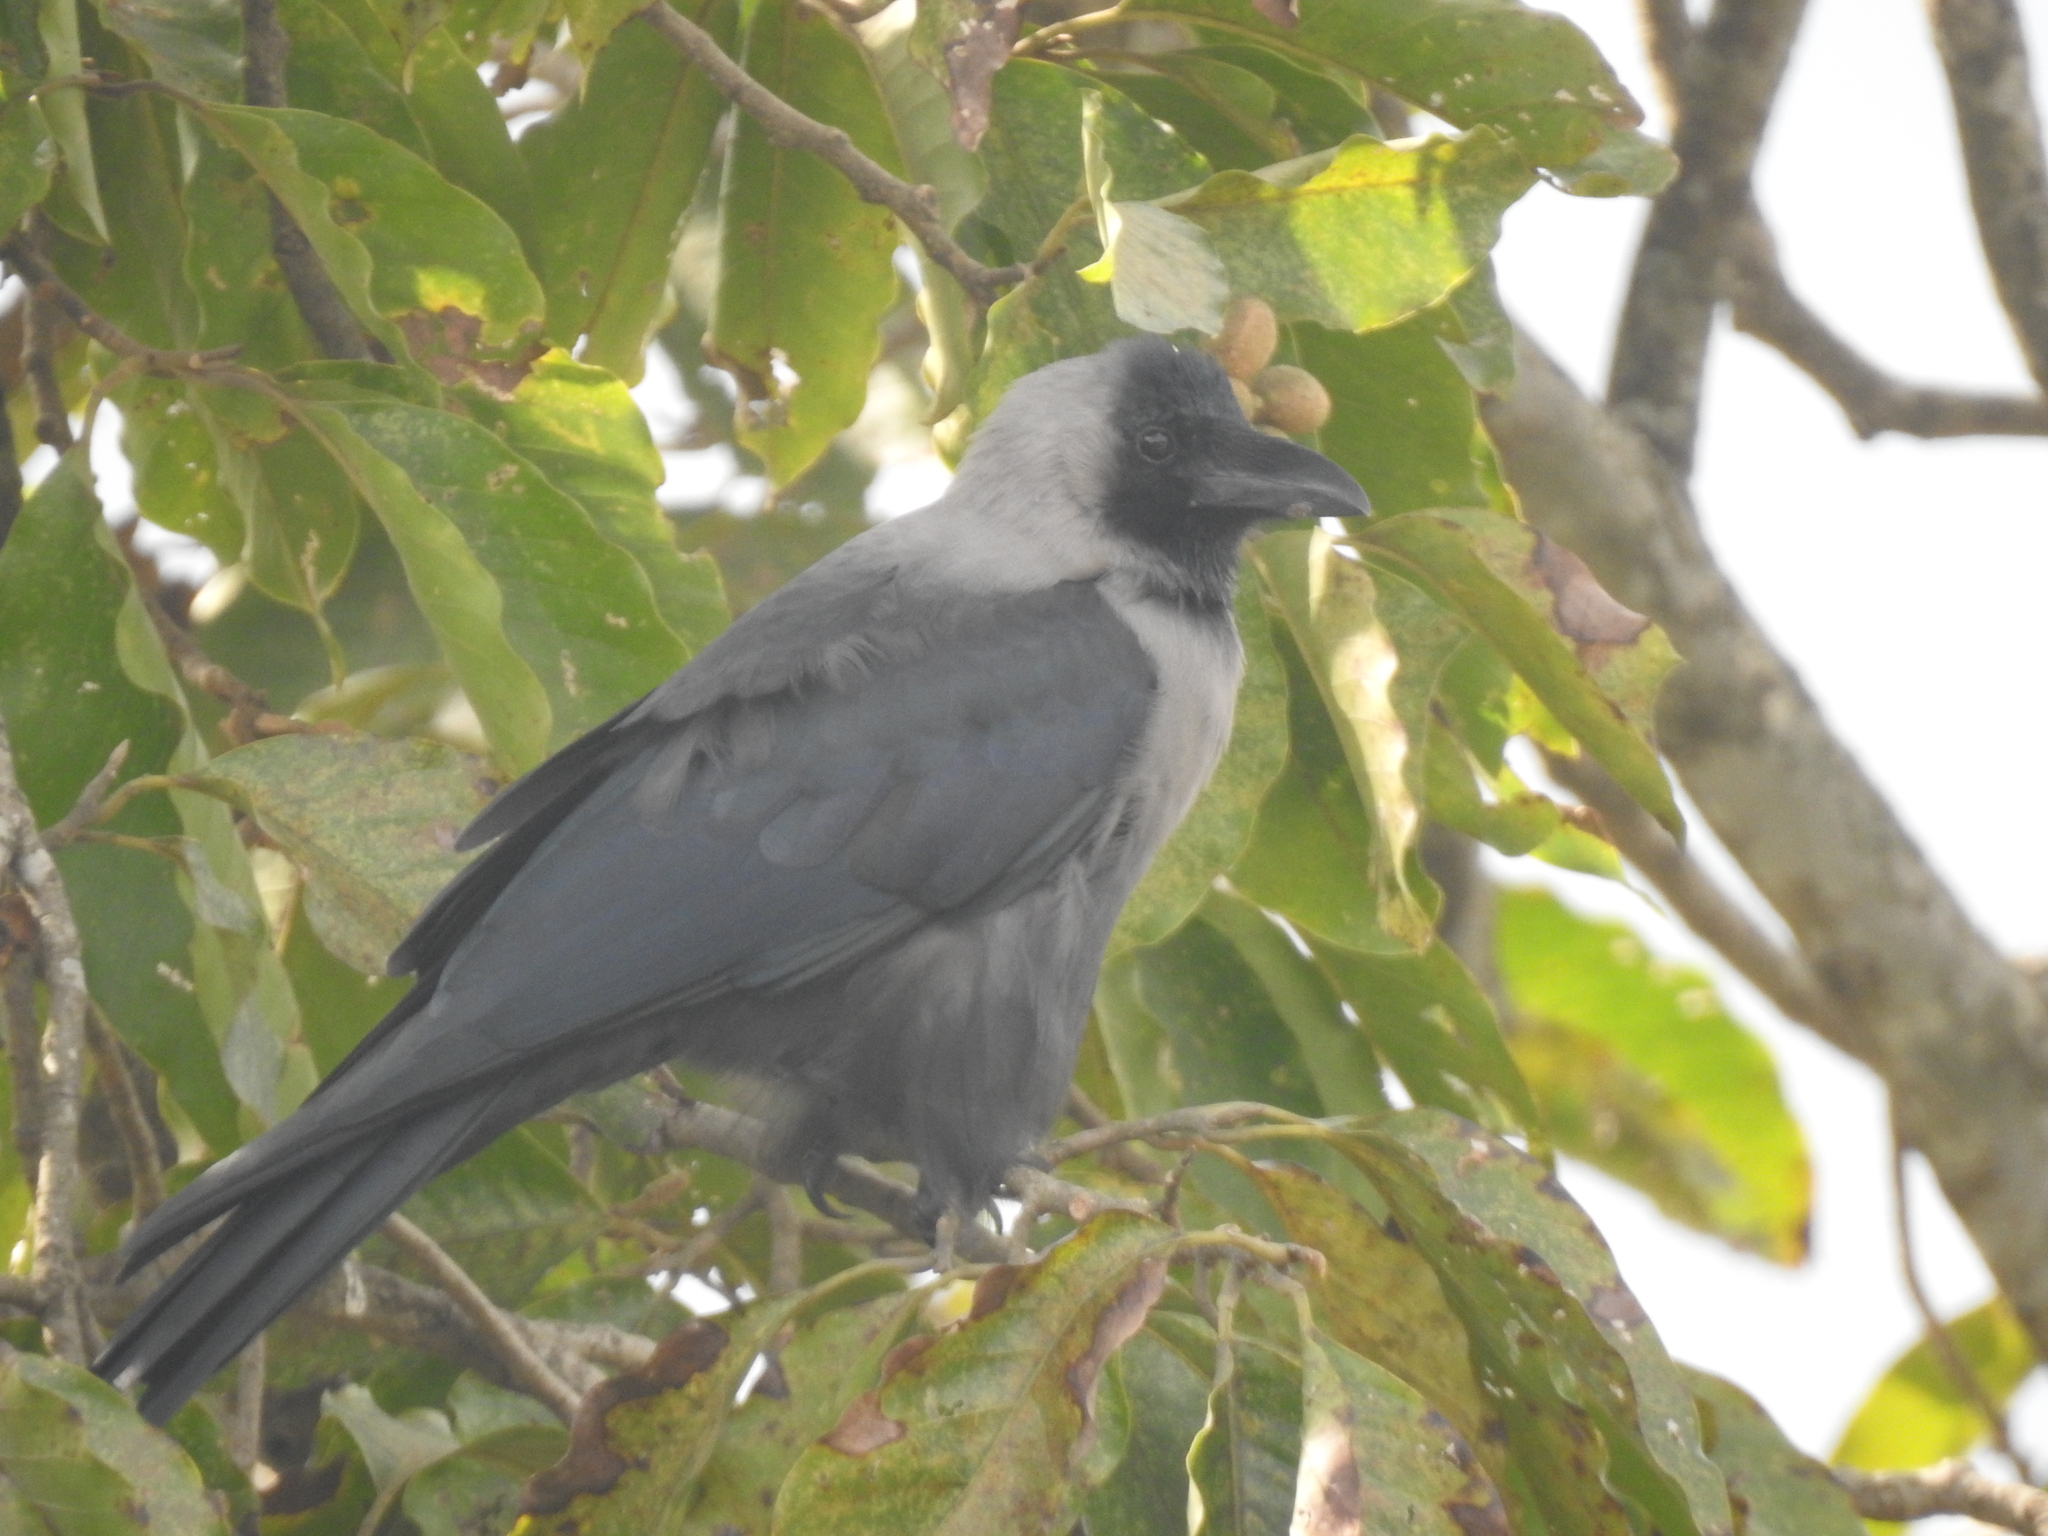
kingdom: Animalia
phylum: Chordata
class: Aves
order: Passeriformes
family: Corvidae
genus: Corvus
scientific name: Corvus splendens
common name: House crow
